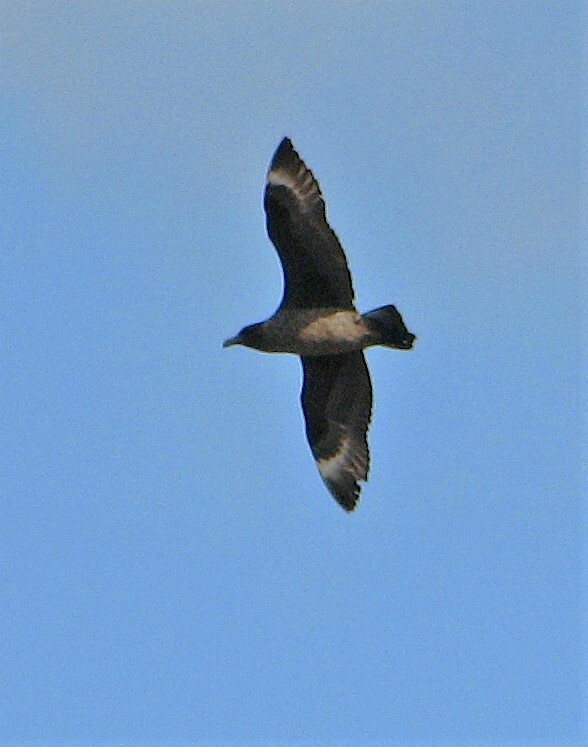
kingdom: Animalia
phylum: Chordata
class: Aves
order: Charadriiformes
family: Stercorariidae
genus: Stercorarius
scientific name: Stercorarius antarcticus
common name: Brown skua
